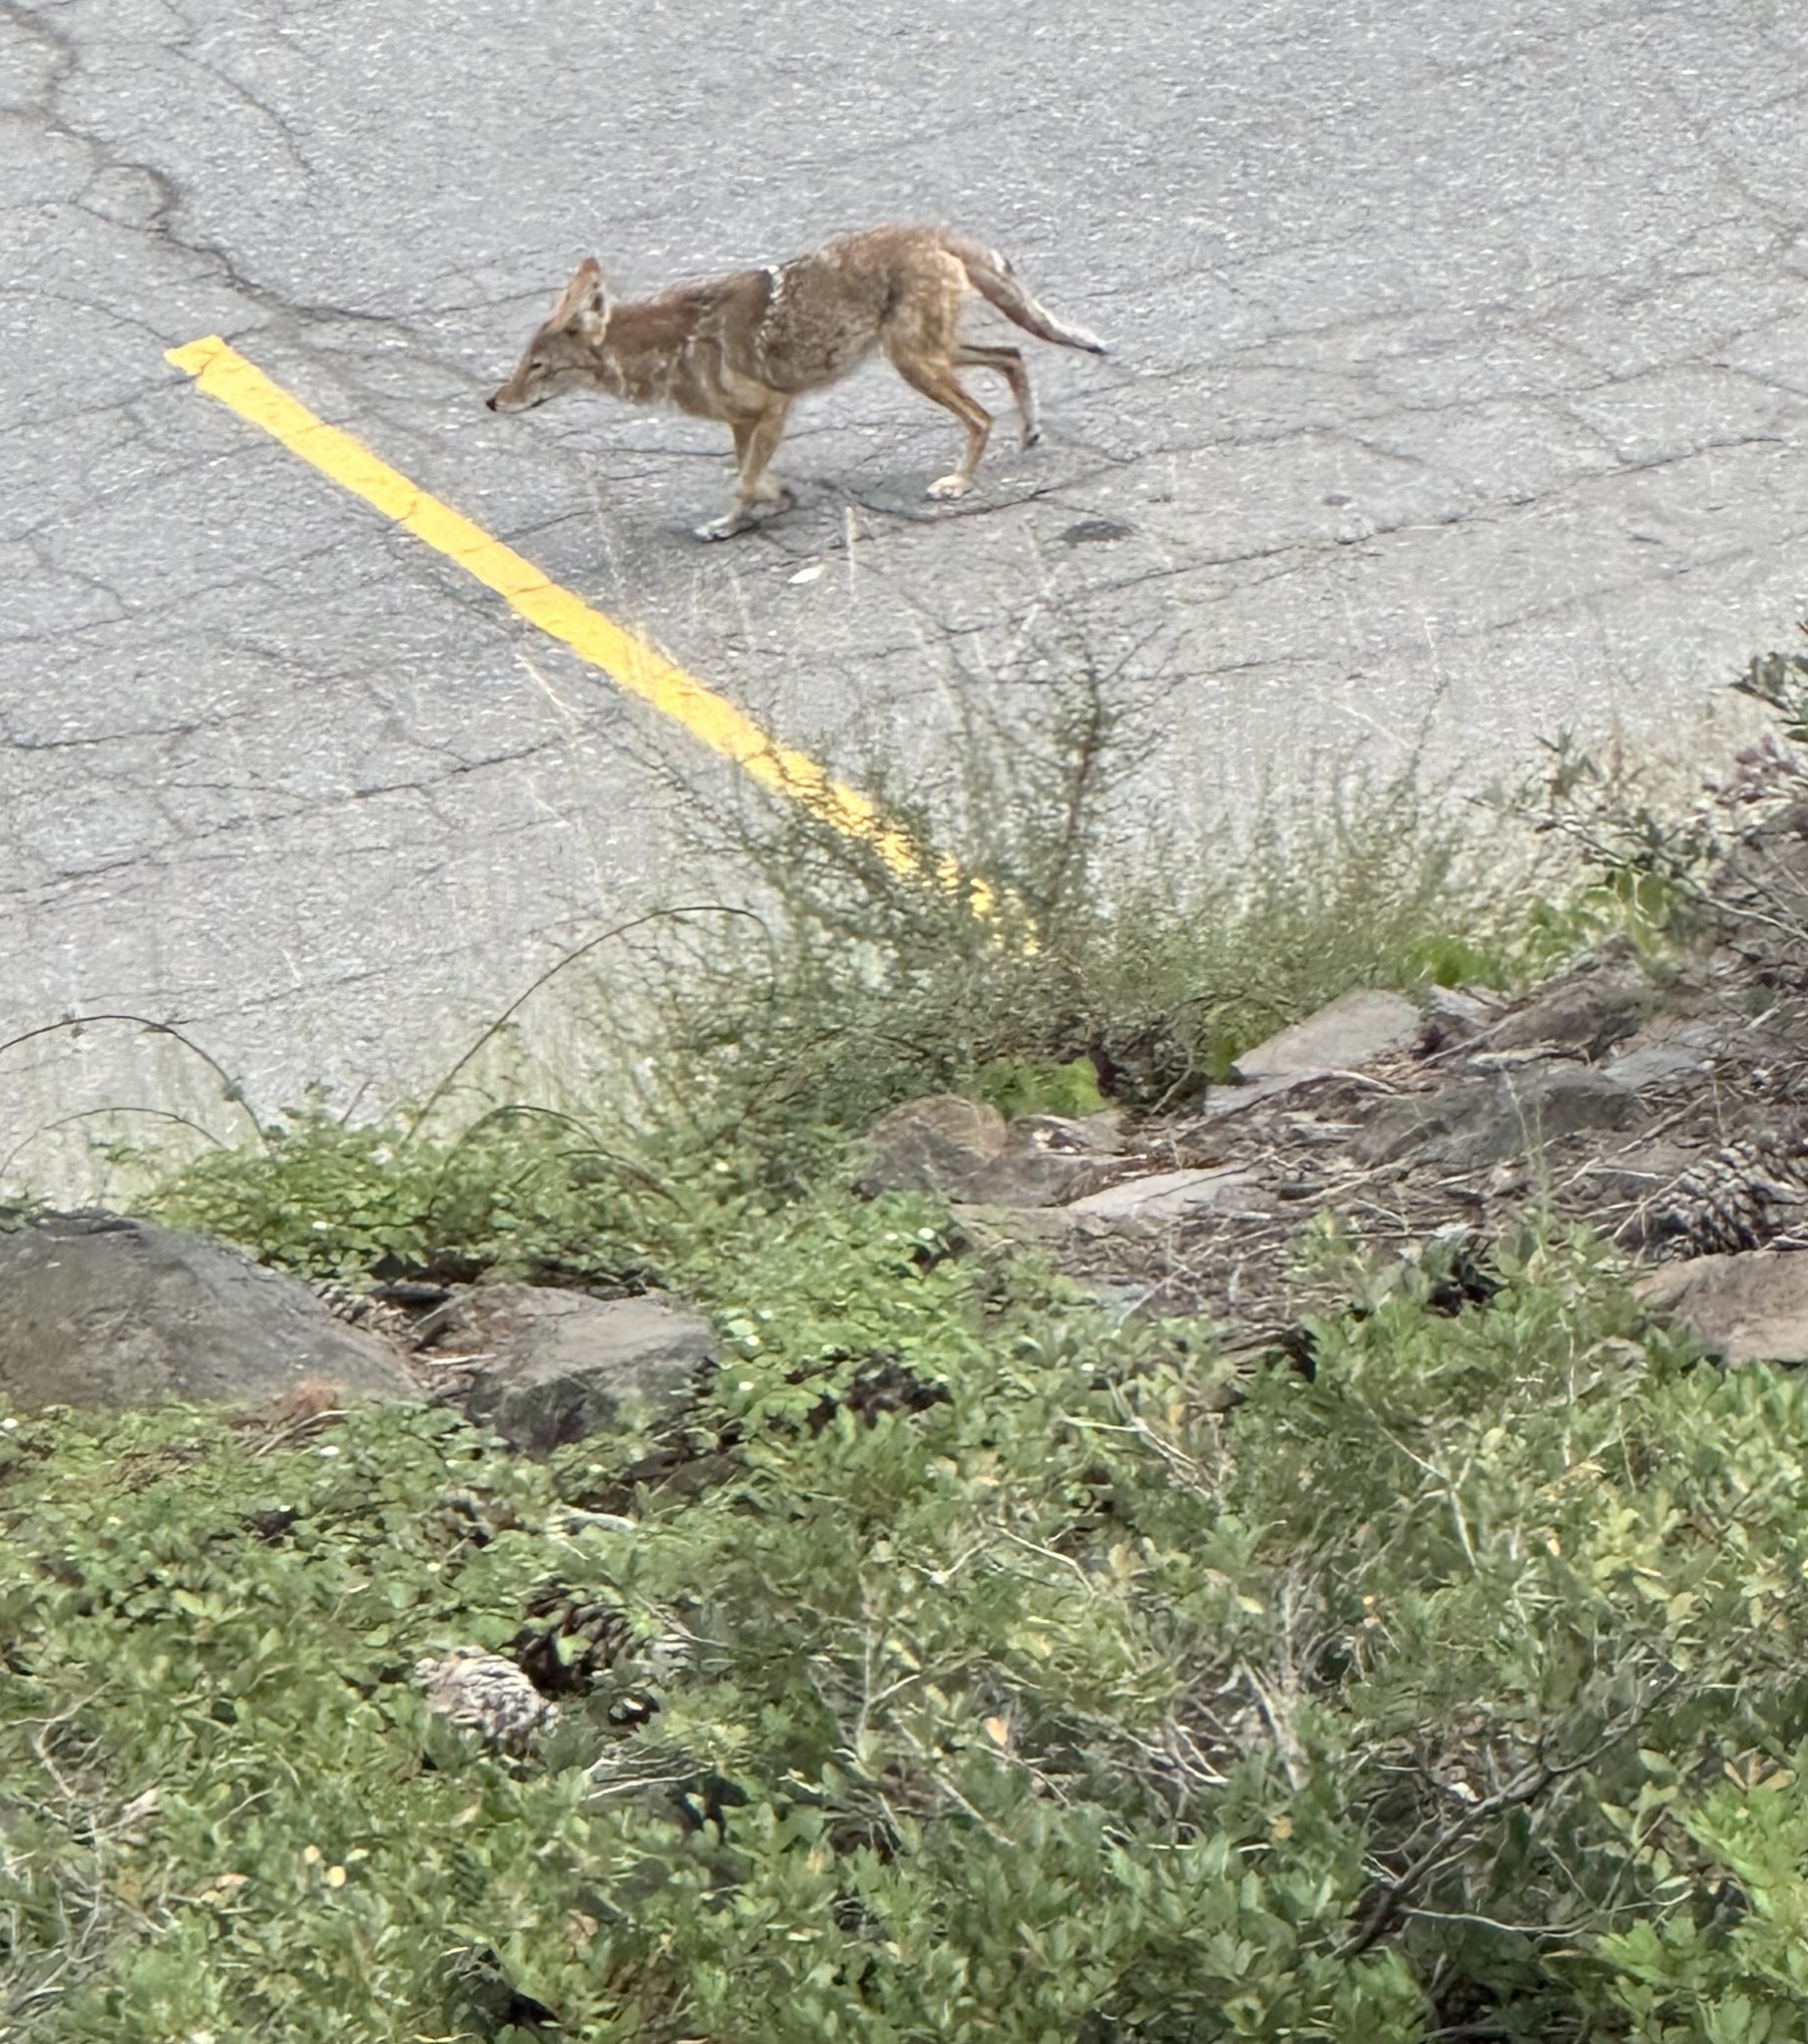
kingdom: Animalia
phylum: Chordata
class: Mammalia
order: Carnivora
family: Canidae
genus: Canis
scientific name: Canis latrans
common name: Coyote
